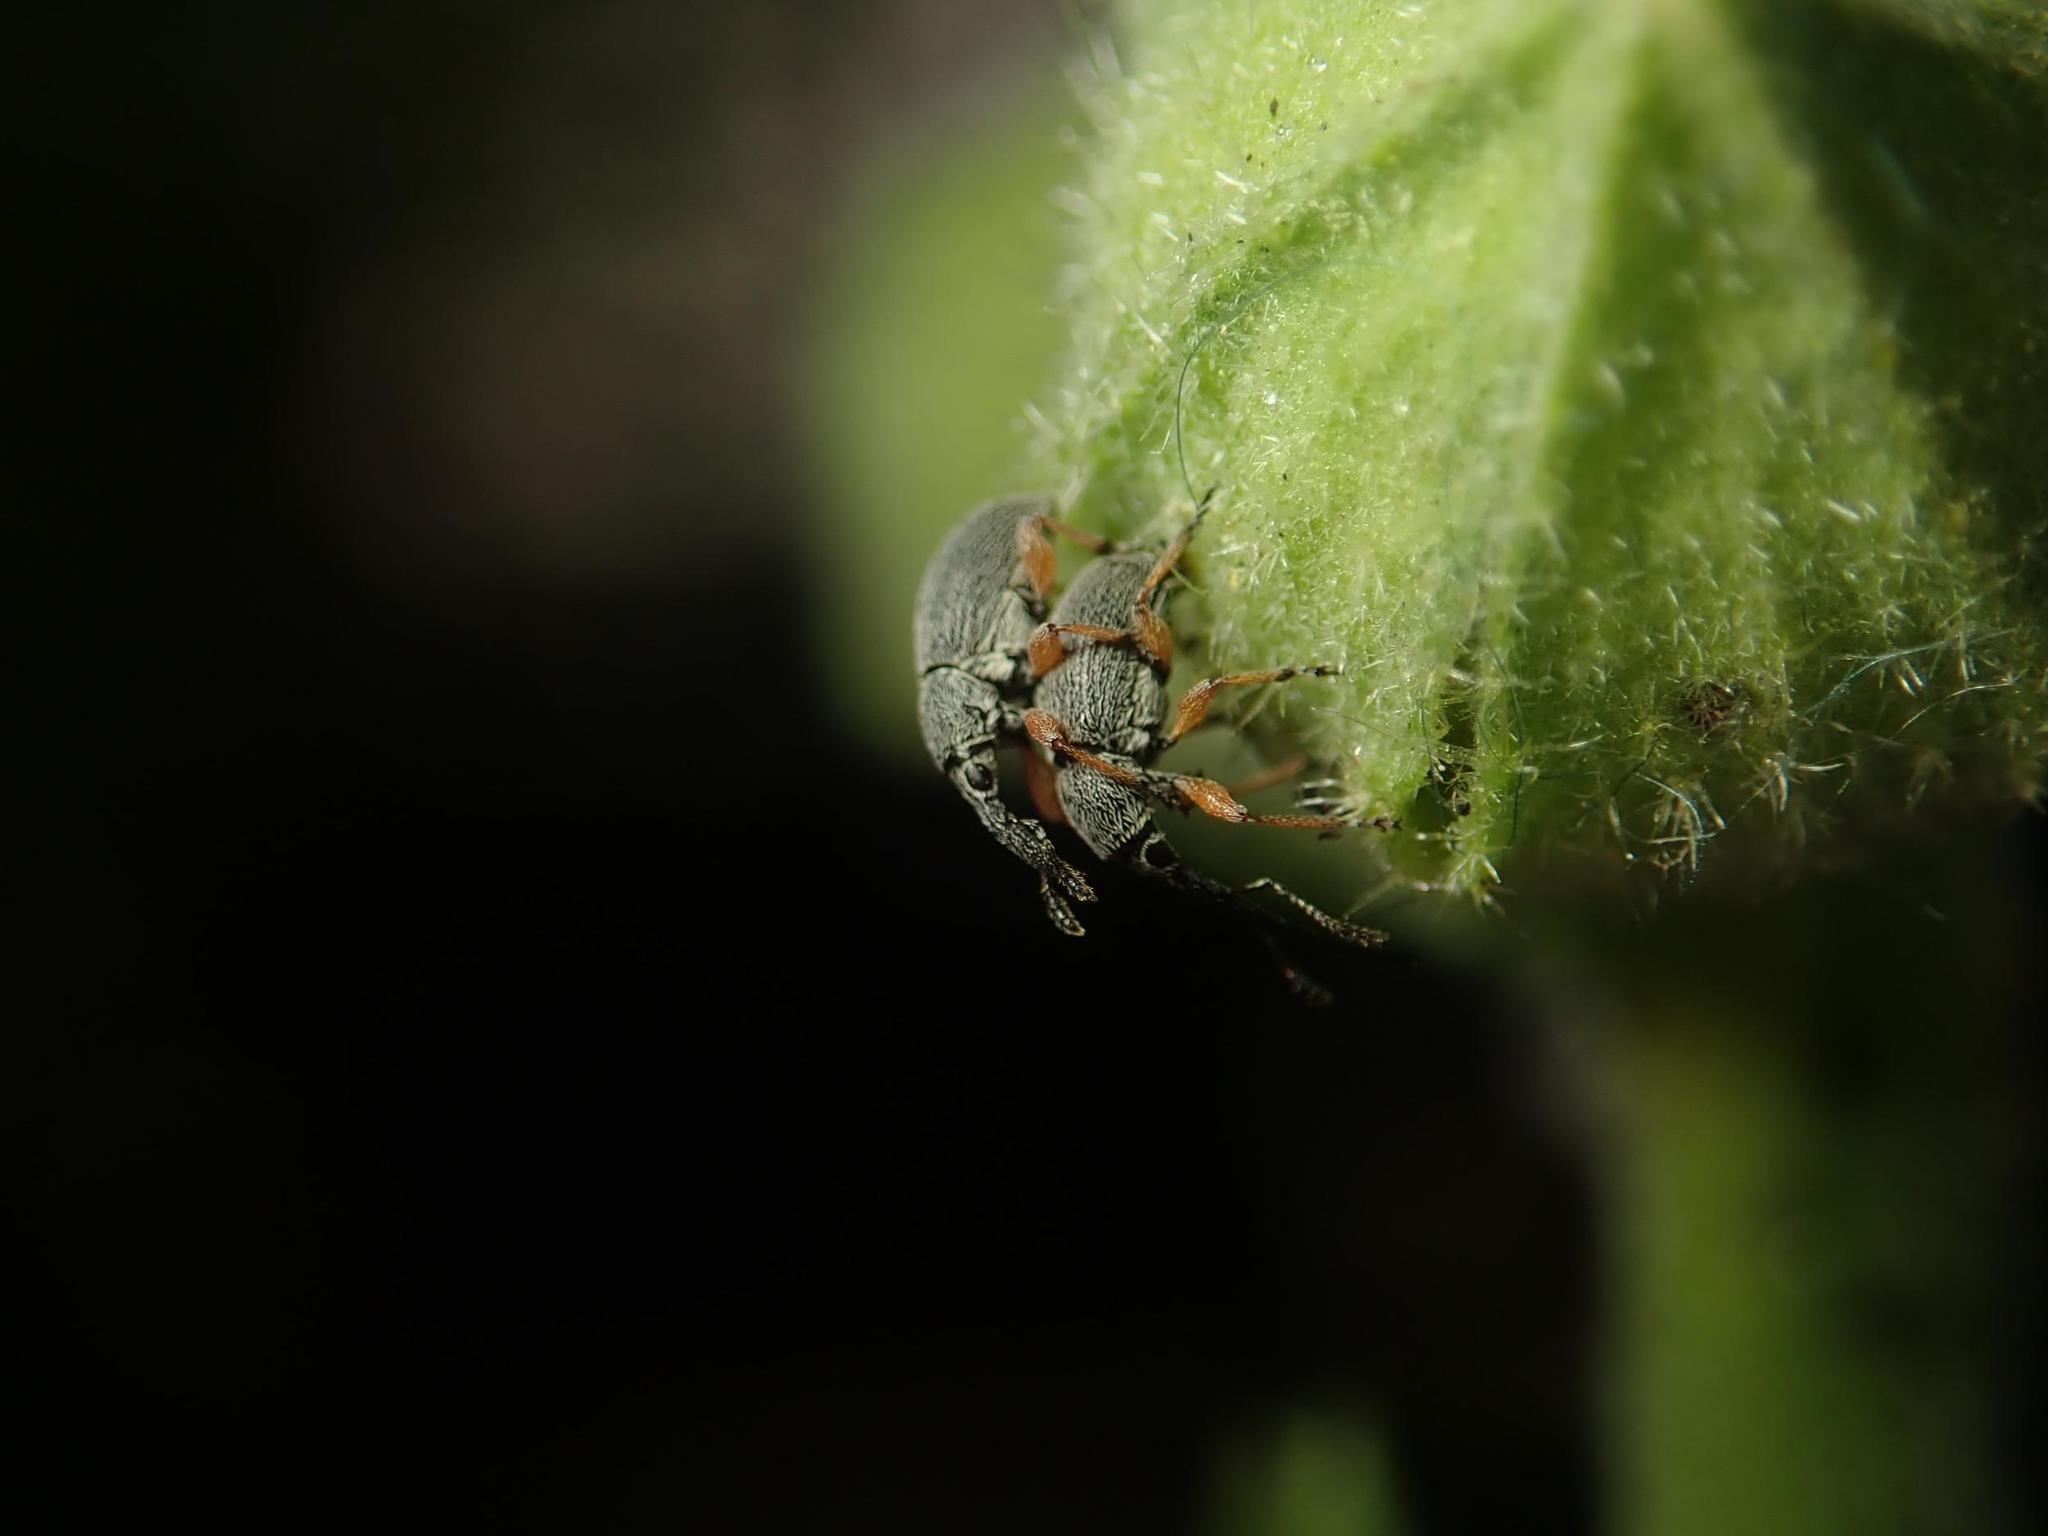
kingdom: Animalia
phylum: Arthropoda
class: Insecta
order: Coleoptera
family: Brentidae
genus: Rhopalapion
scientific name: Rhopalapion longirostre
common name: Hollyhock weevil
